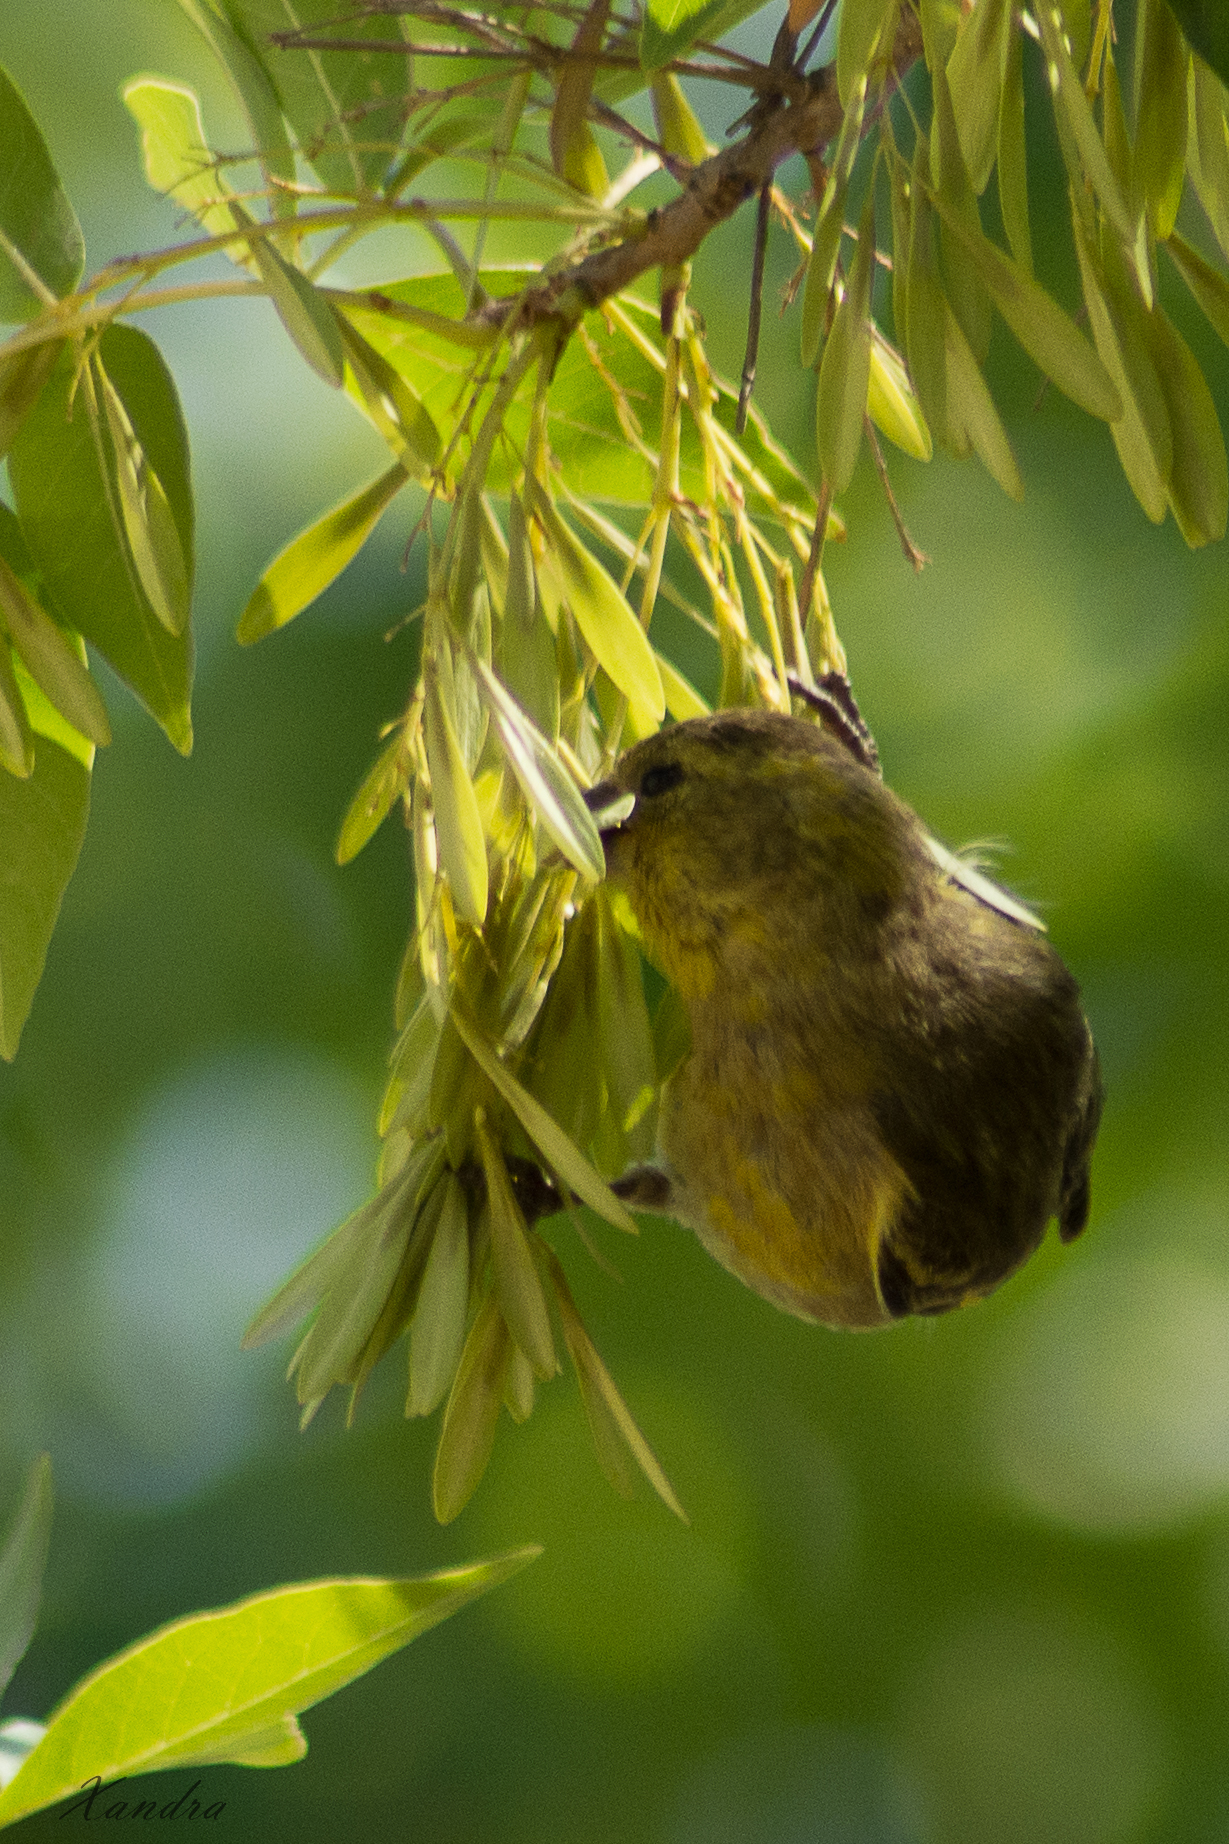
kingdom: Animalia
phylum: Chordata
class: Aves
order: Passeriformes
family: Fringillidae
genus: Spinus
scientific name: Spinus barbatus
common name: Black-chinned siskin
